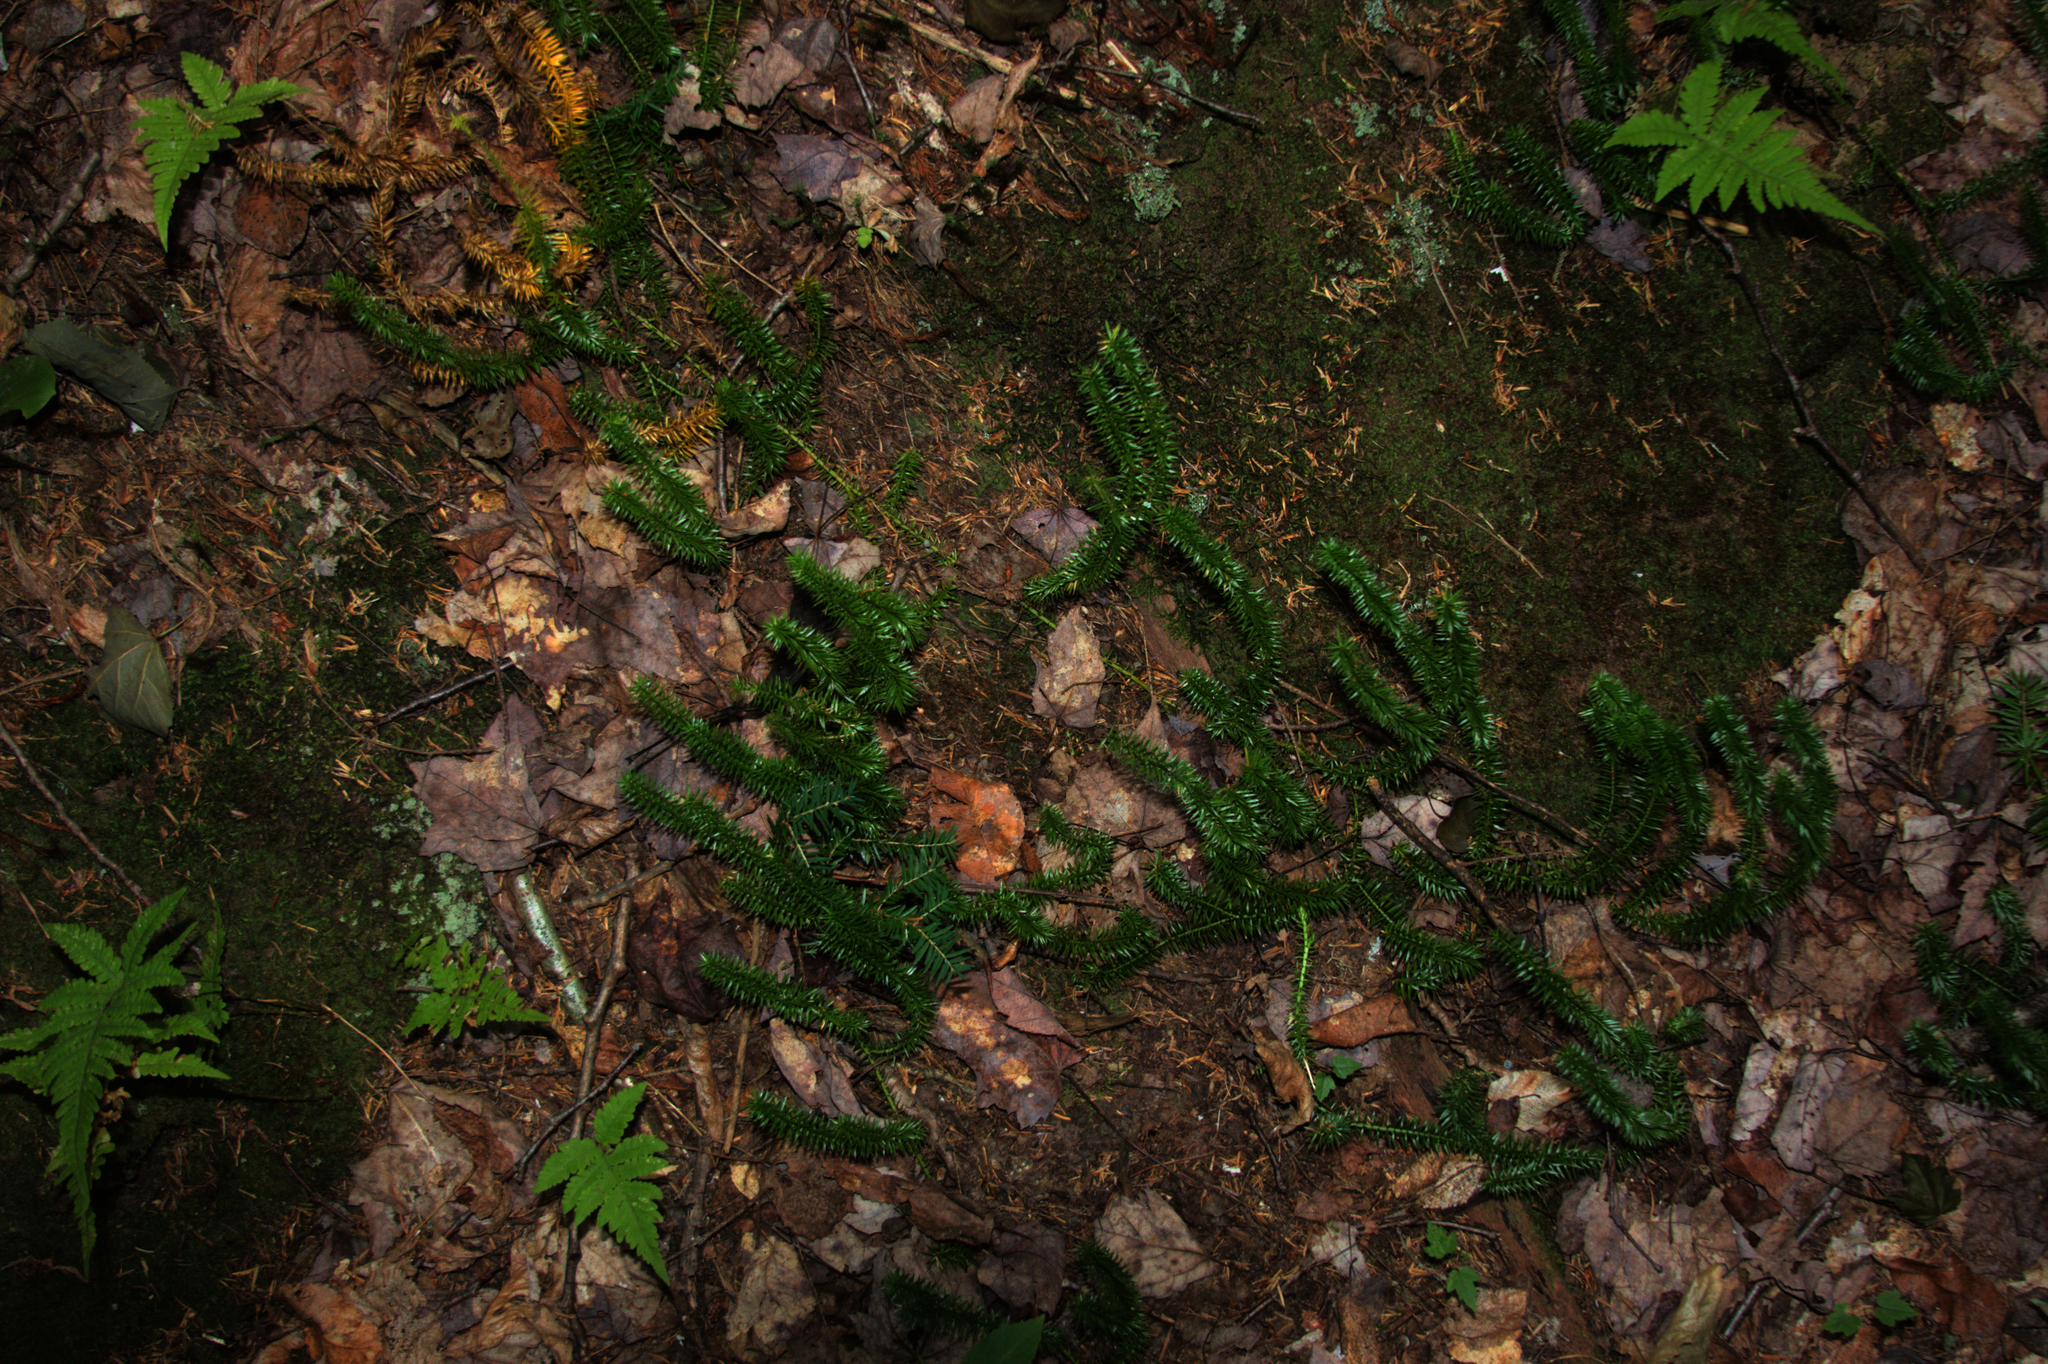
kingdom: Plantae
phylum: Tracheophyta
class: Lycopodiopsida
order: Lycopodiales
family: Lycopodiaceae
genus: Spinulum
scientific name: Spinulum annotinum
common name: Interrupted club-moss
